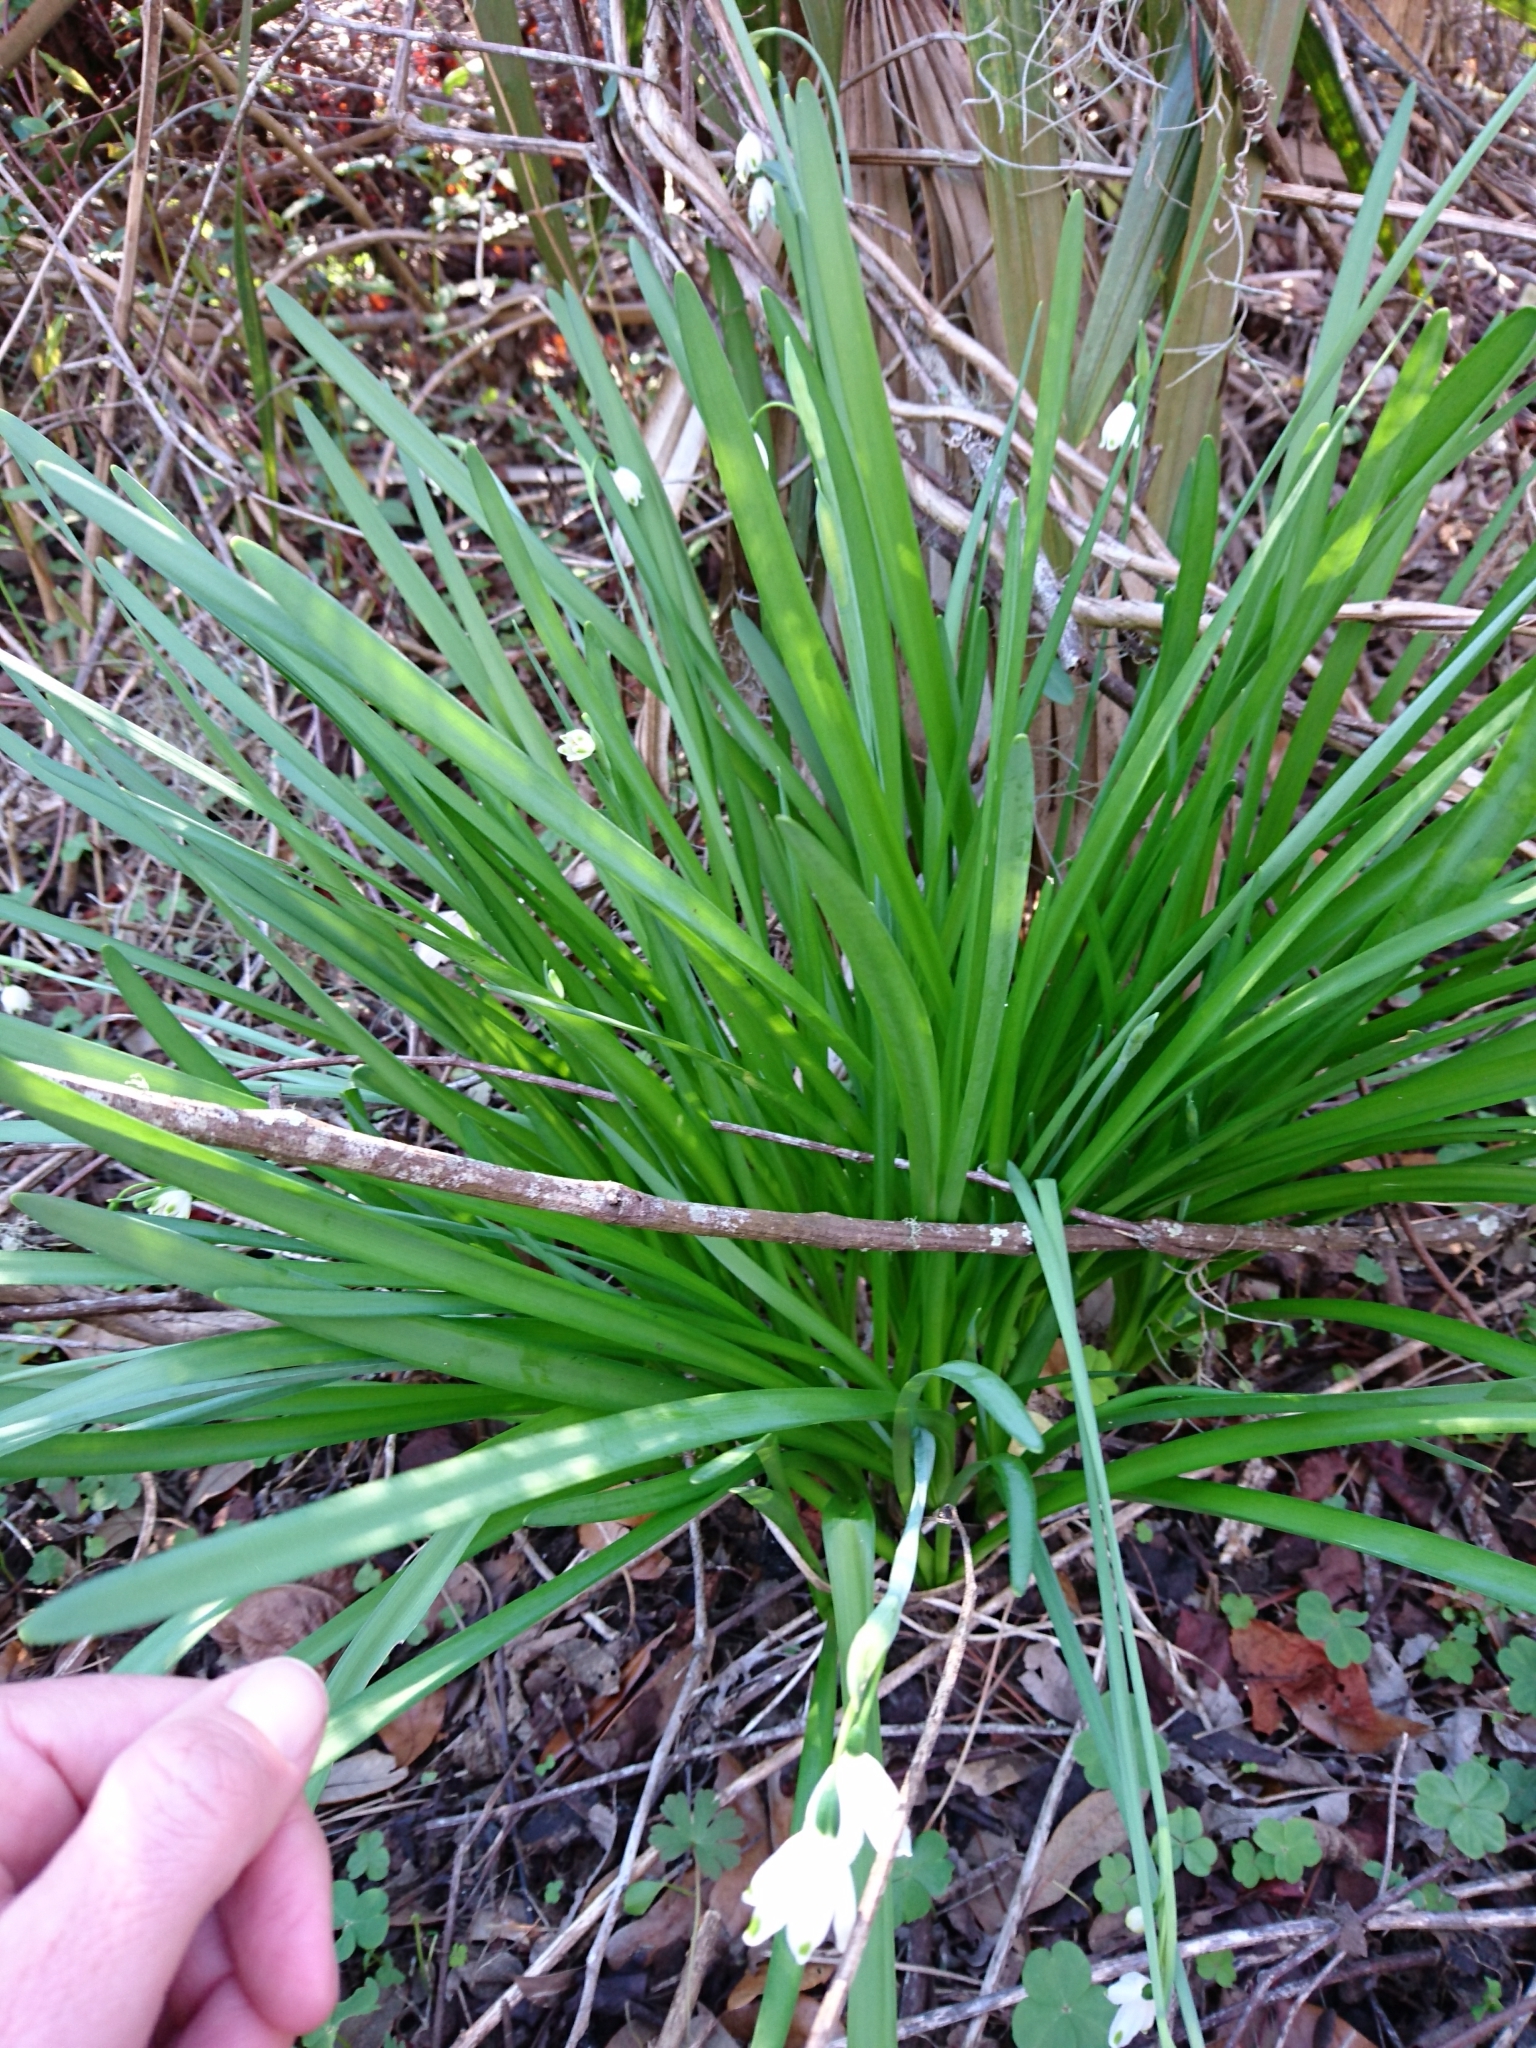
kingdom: Plantae
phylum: Tracheophyta
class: Liliopsida
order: Asparagales
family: Amaryllidaceae
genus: Leucojum
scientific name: Leucojum aestivum
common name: Summer snowflake
